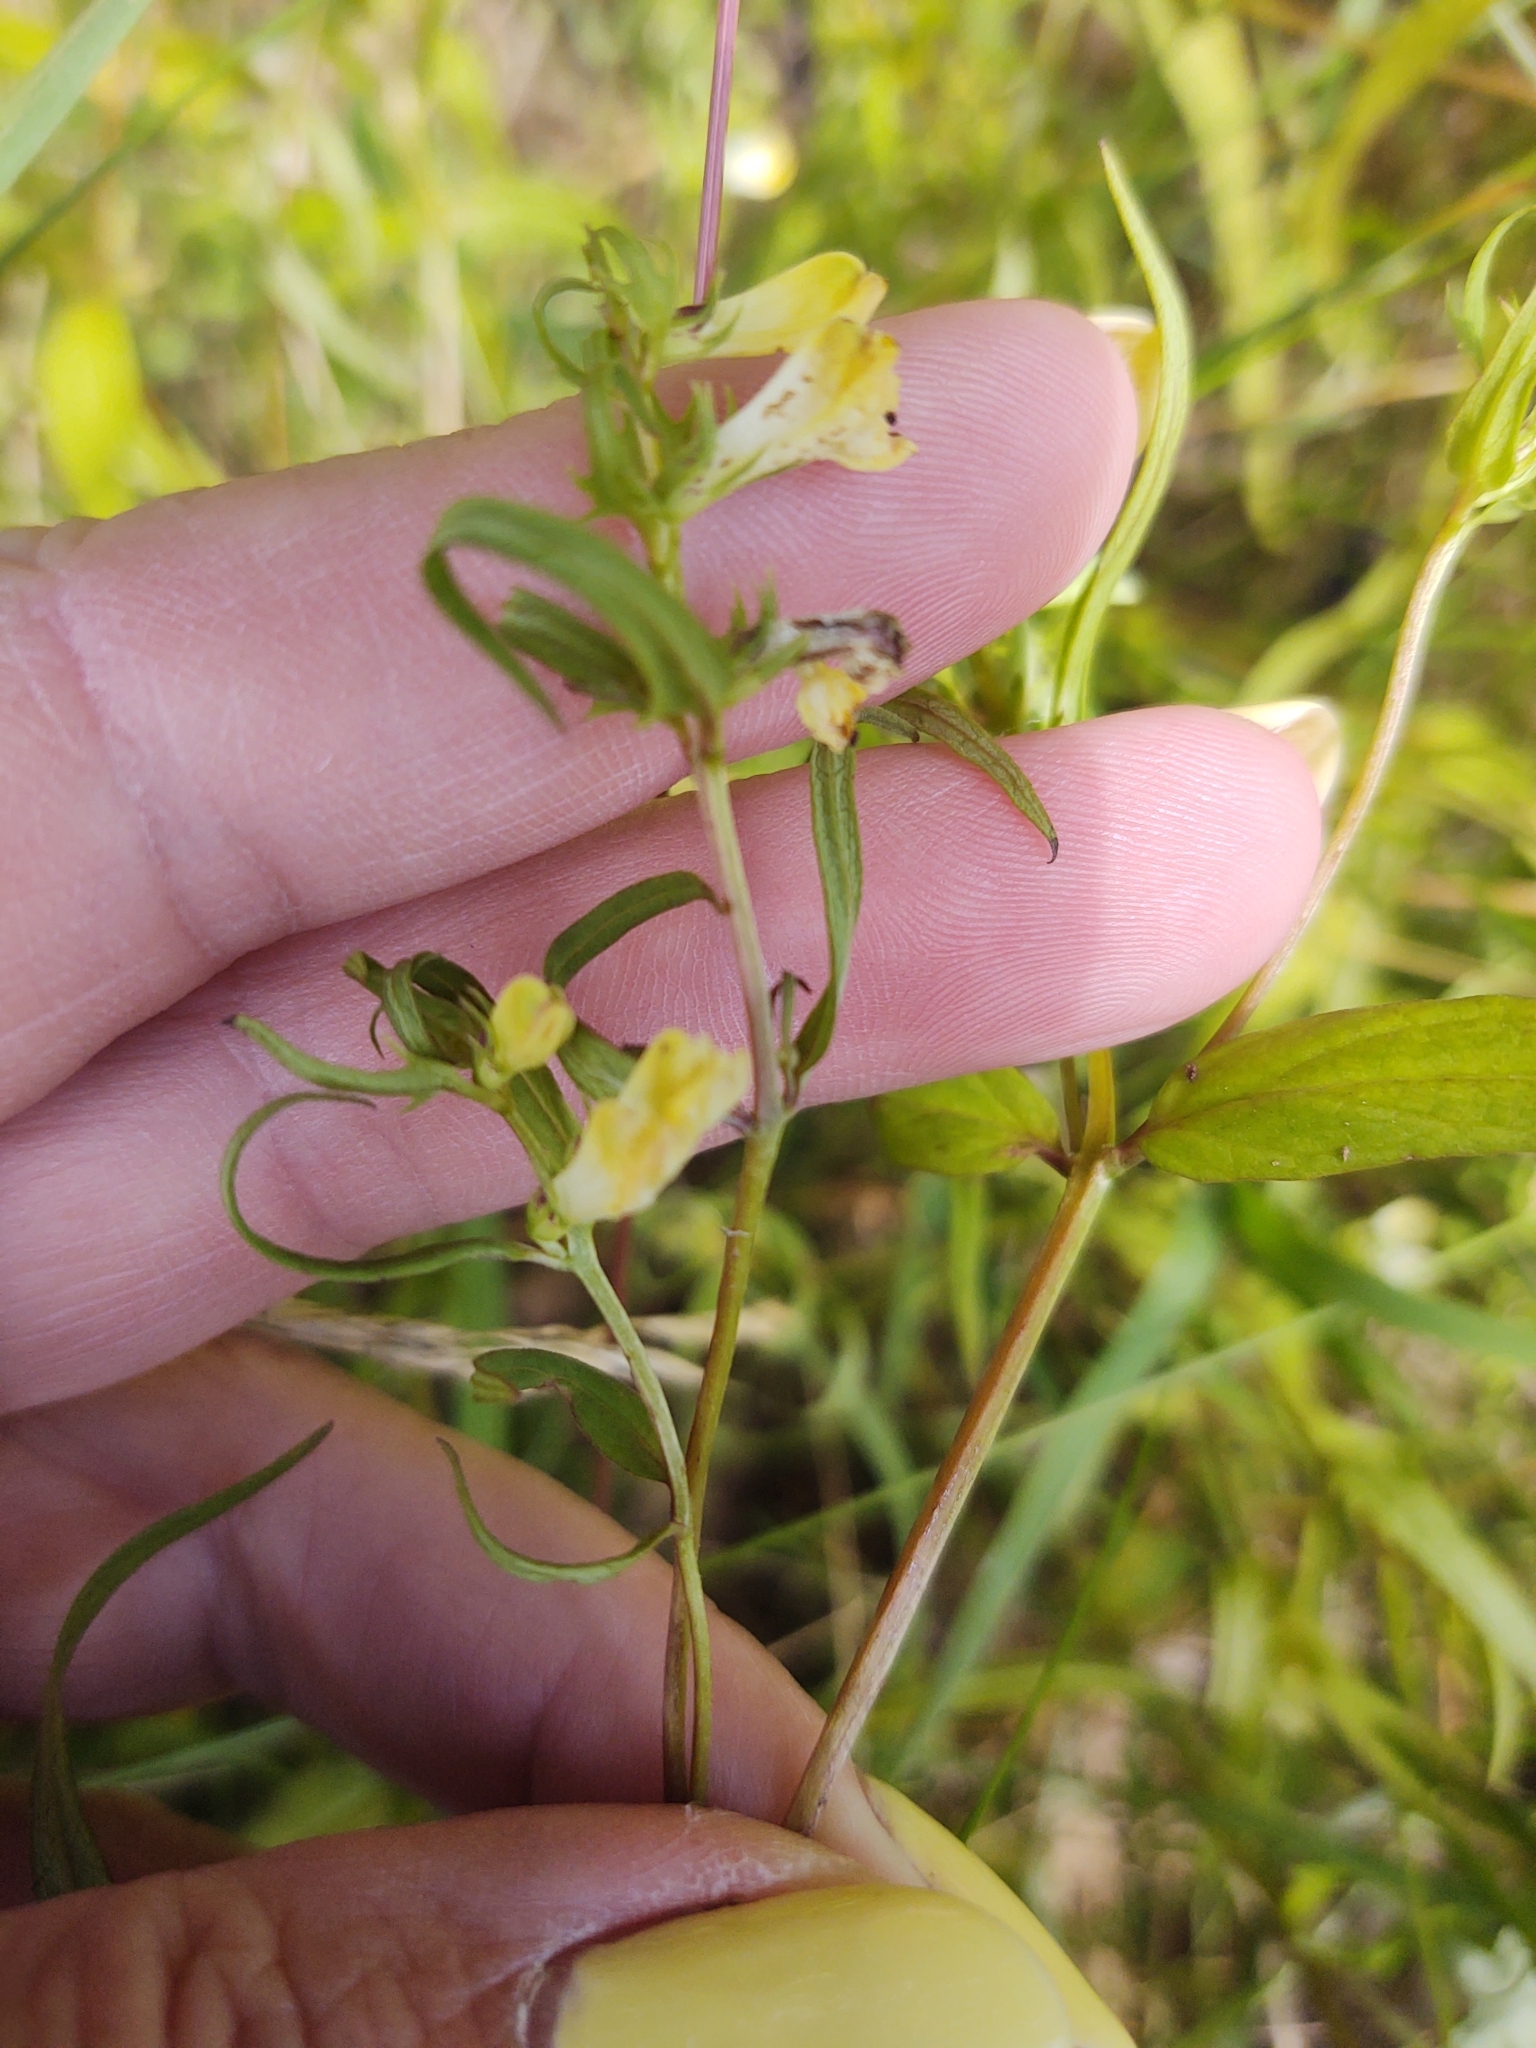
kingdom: Plantae
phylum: Tracheophyta
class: Magnoliopsida
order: Lamiales
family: Orobanchaceae
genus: Melampyrum
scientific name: Melampyrum pratense
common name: Common cow-wheat
